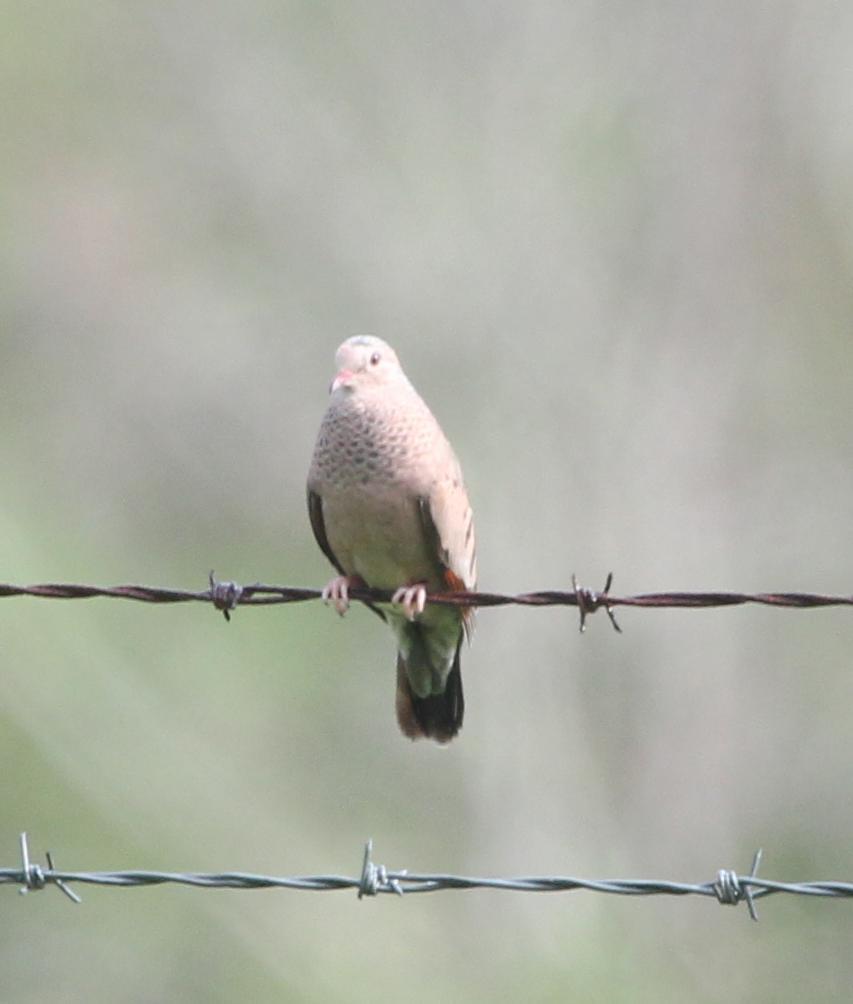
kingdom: Animalia
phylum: Chordata
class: Aves
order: Columbiformes
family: Columbidae
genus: Columbina
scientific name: Columbina passerina
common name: Common ground-dove
